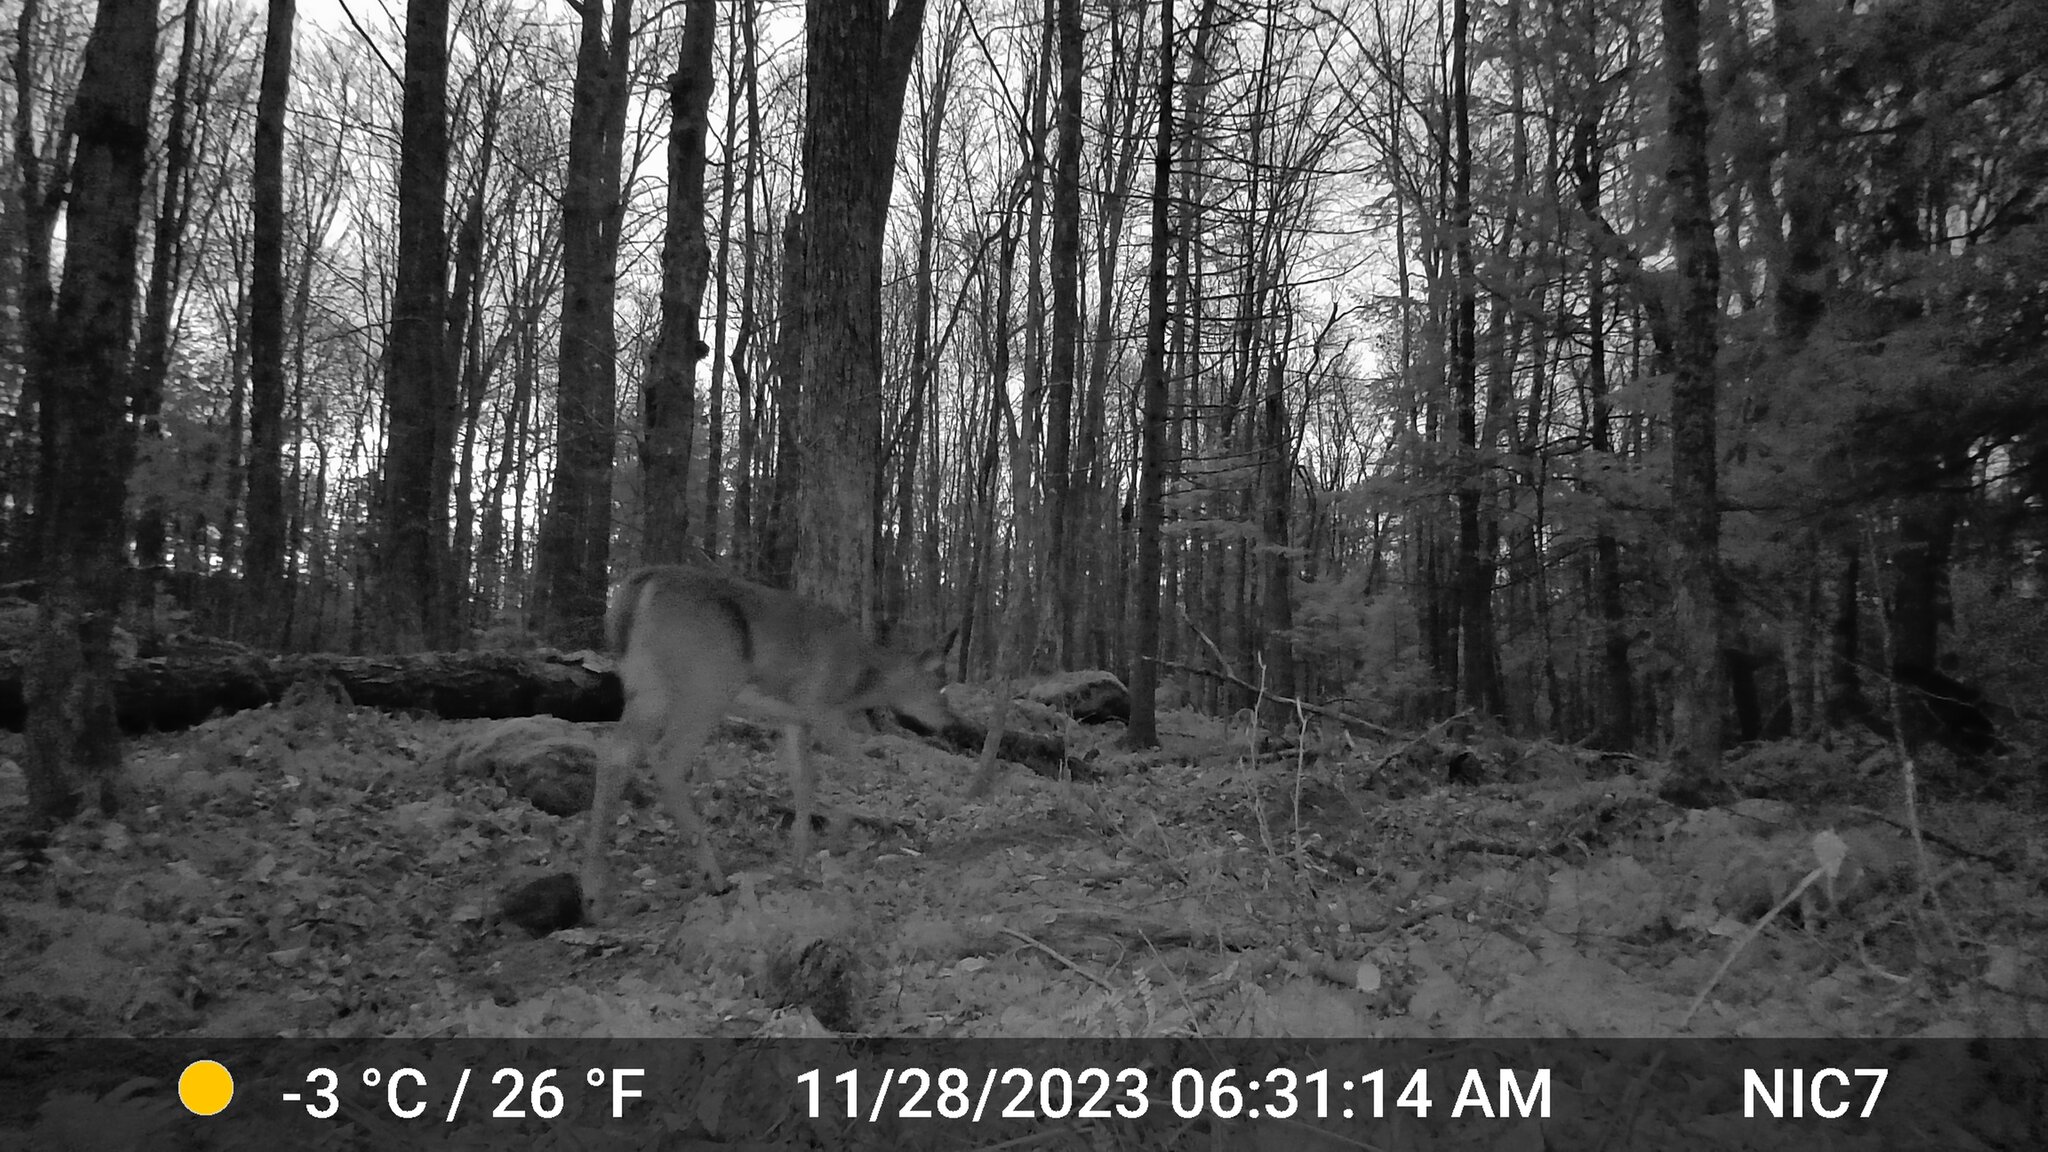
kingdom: Animalia
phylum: Chordata
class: Mammalia
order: Artiodactyla
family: Cervidae
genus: Odocoileus
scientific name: Odocoileus virginianus
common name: White-tailed deer
